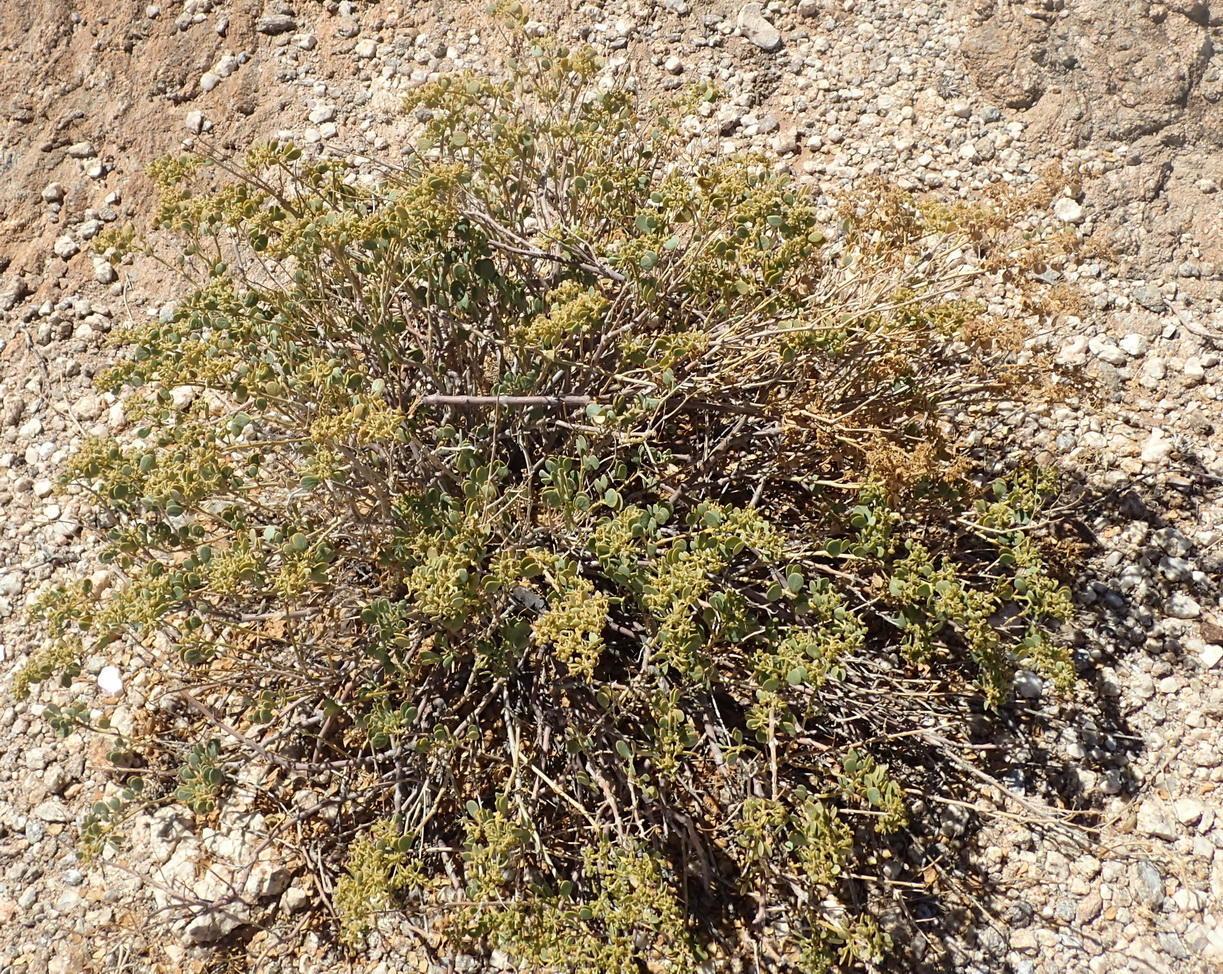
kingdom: Plantae
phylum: Tracheophyta
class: Magnoliopsida
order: Zygophyllales
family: Zygophyllaceae
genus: Tetraena
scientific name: Tetraena decumbens
